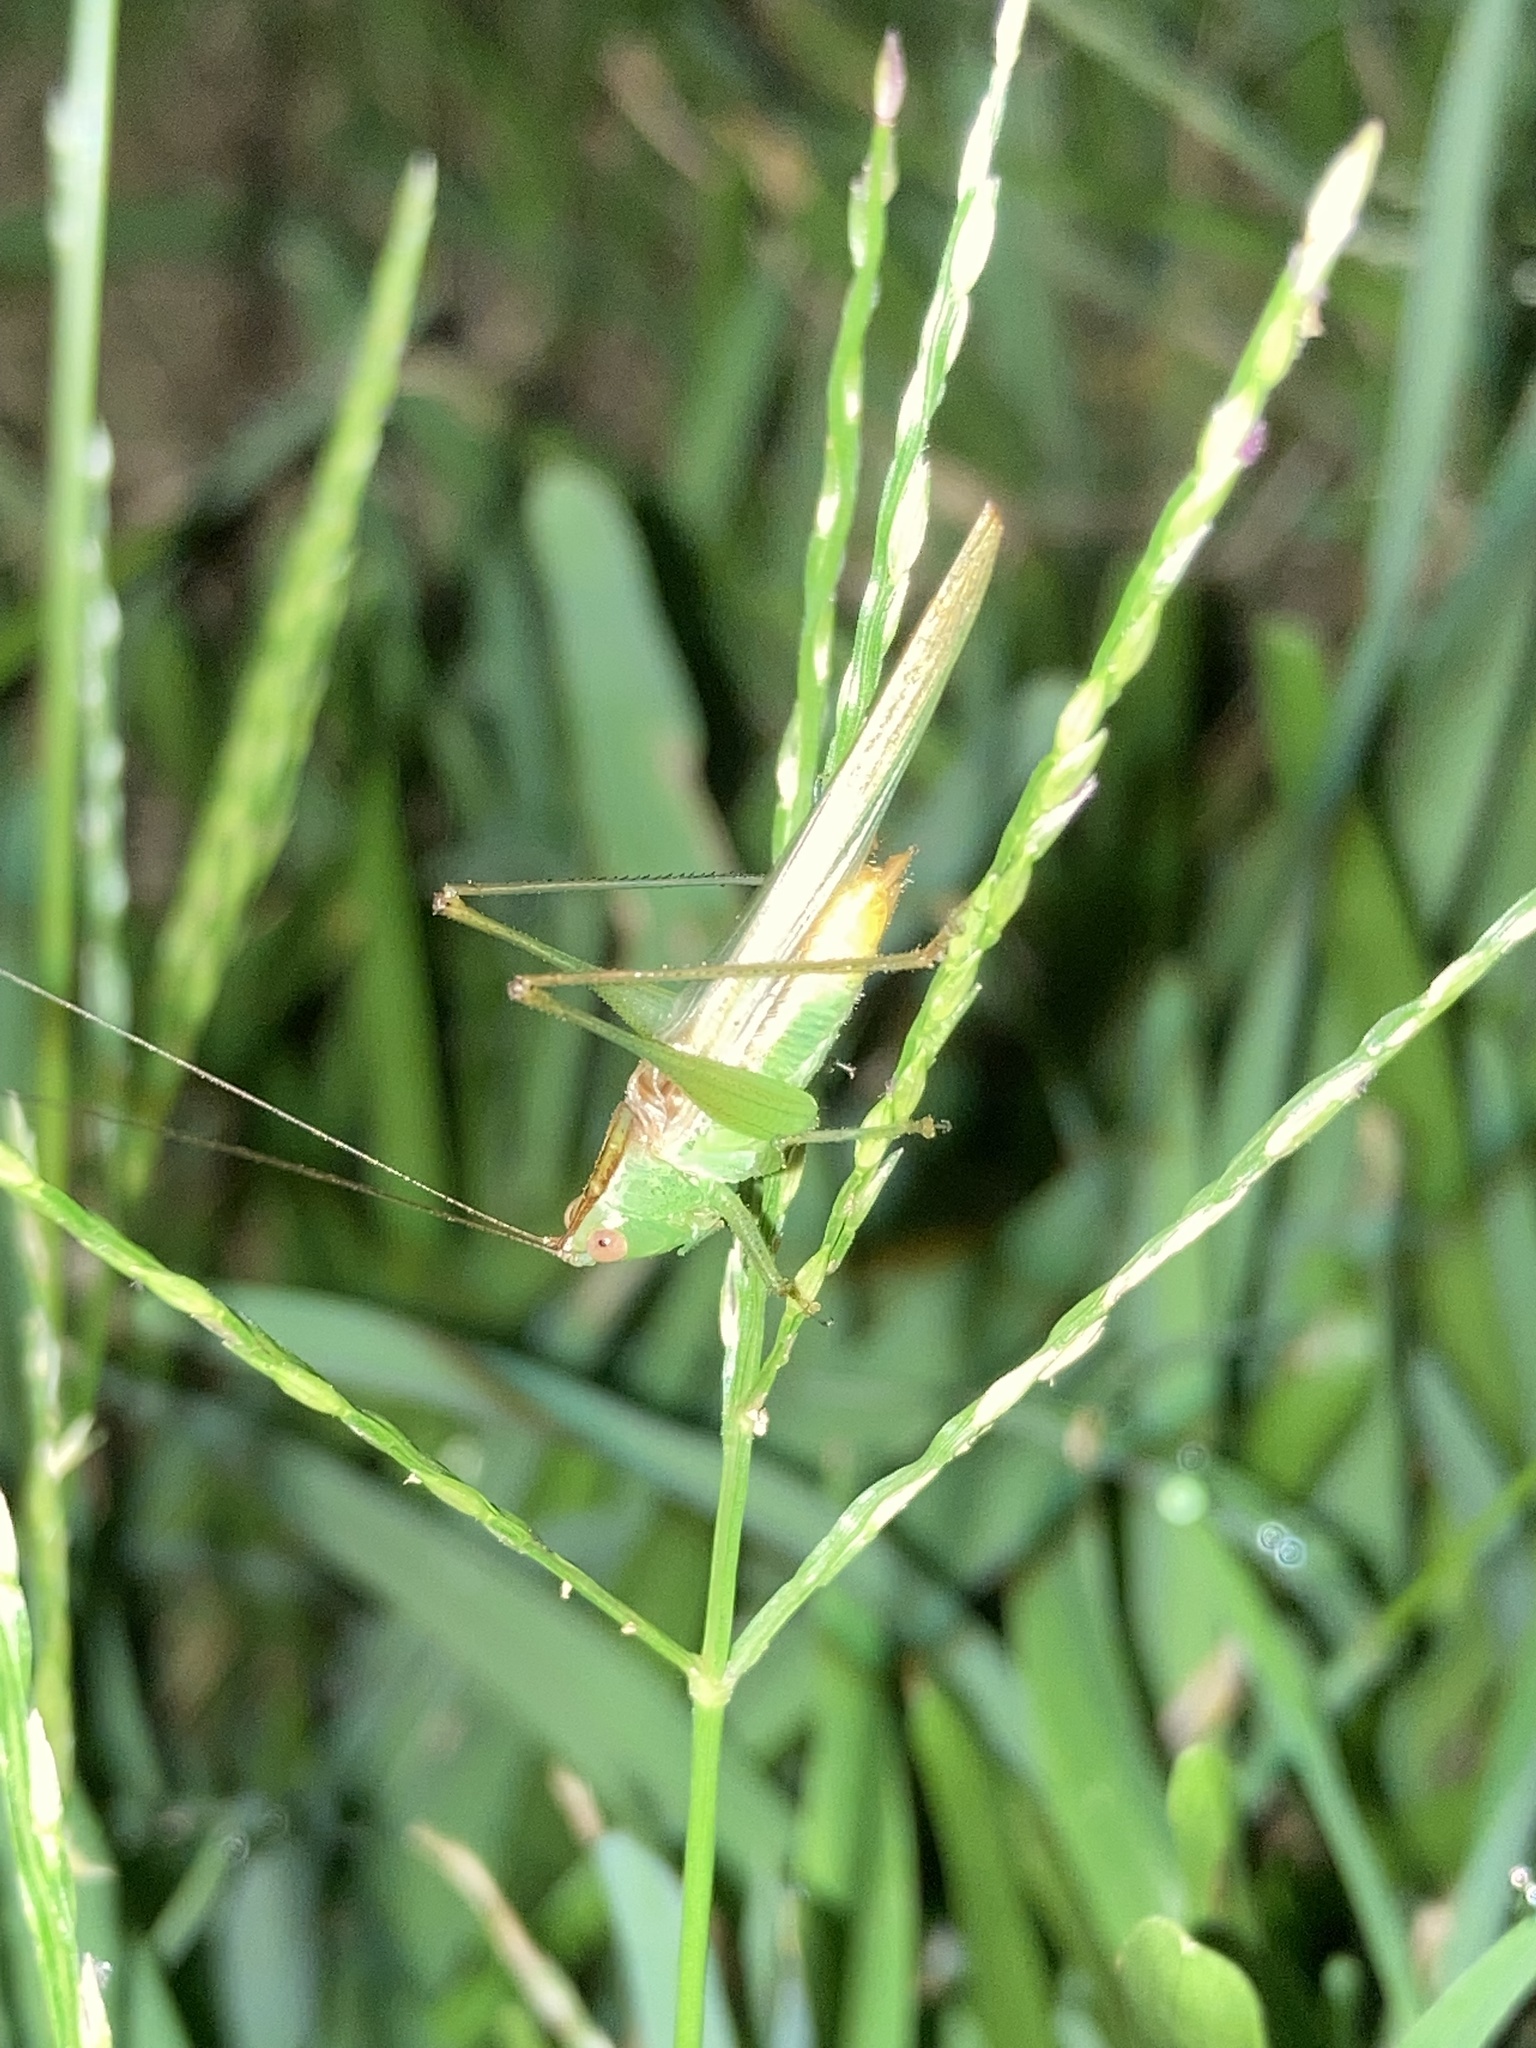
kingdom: Animalia
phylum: Arthropoda
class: Insecta
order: Orthoptera
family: Tettigoniidae
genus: Conocephalus
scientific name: Conocephalus cinereus
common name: Caribbean meadow katydid
